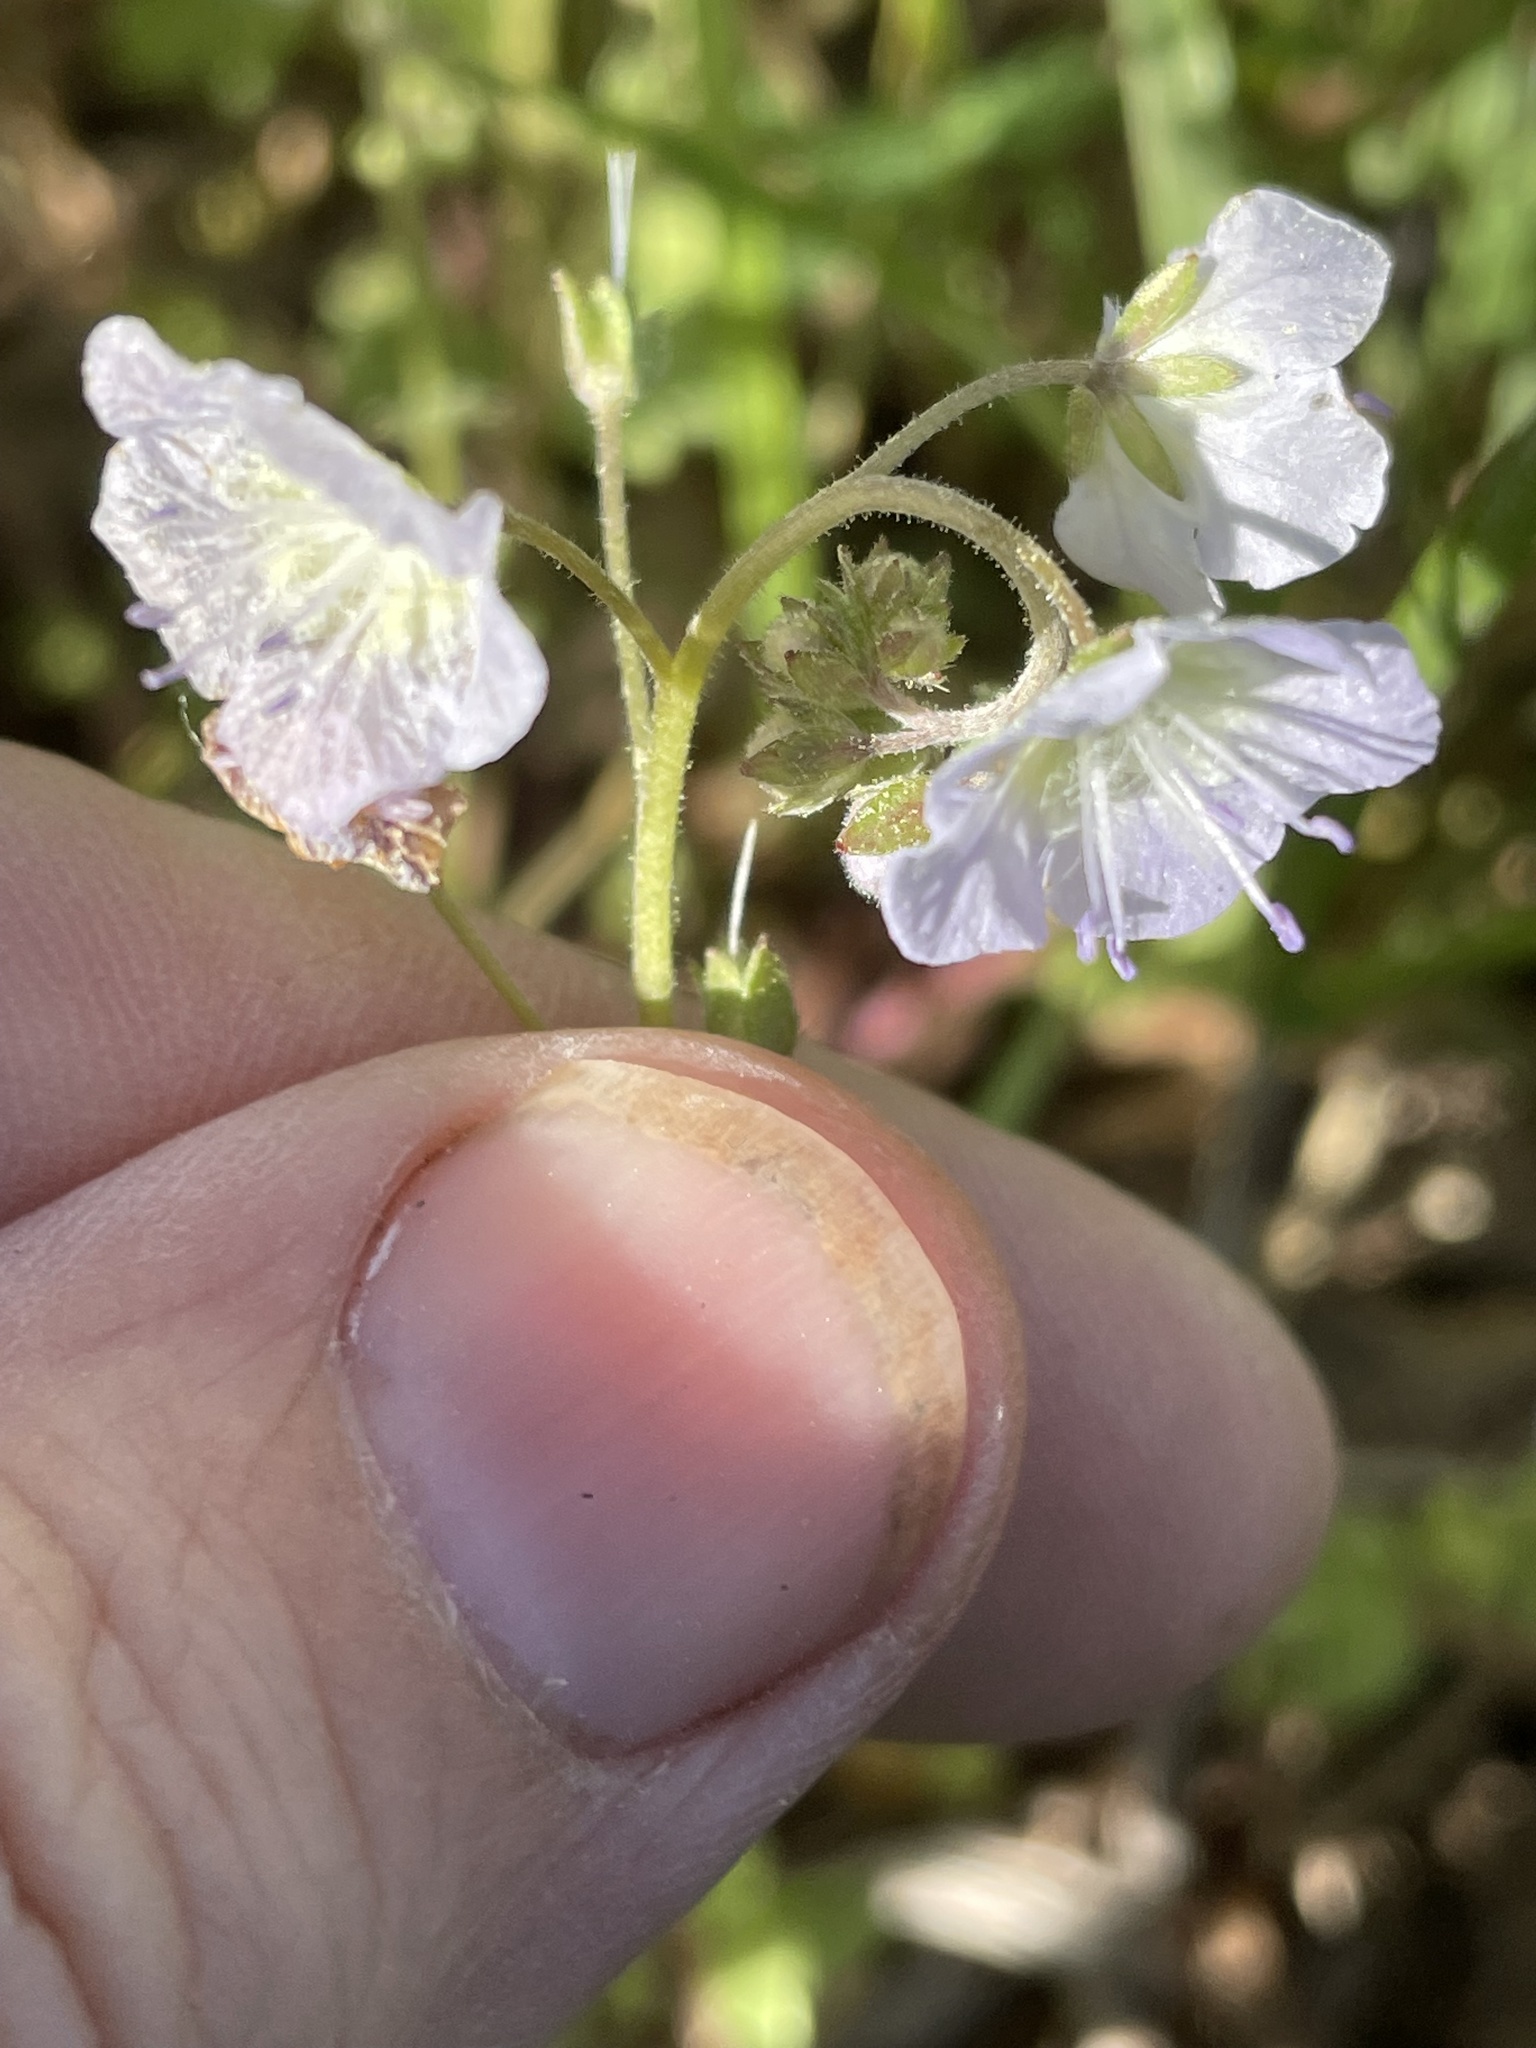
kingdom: Plantae
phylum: Tracheophyta
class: Magnoliopsida
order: Boraginales
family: Hydrophyllaceae
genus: Phacelia
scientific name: Phacelia dubia
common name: Appalachian phacelia
